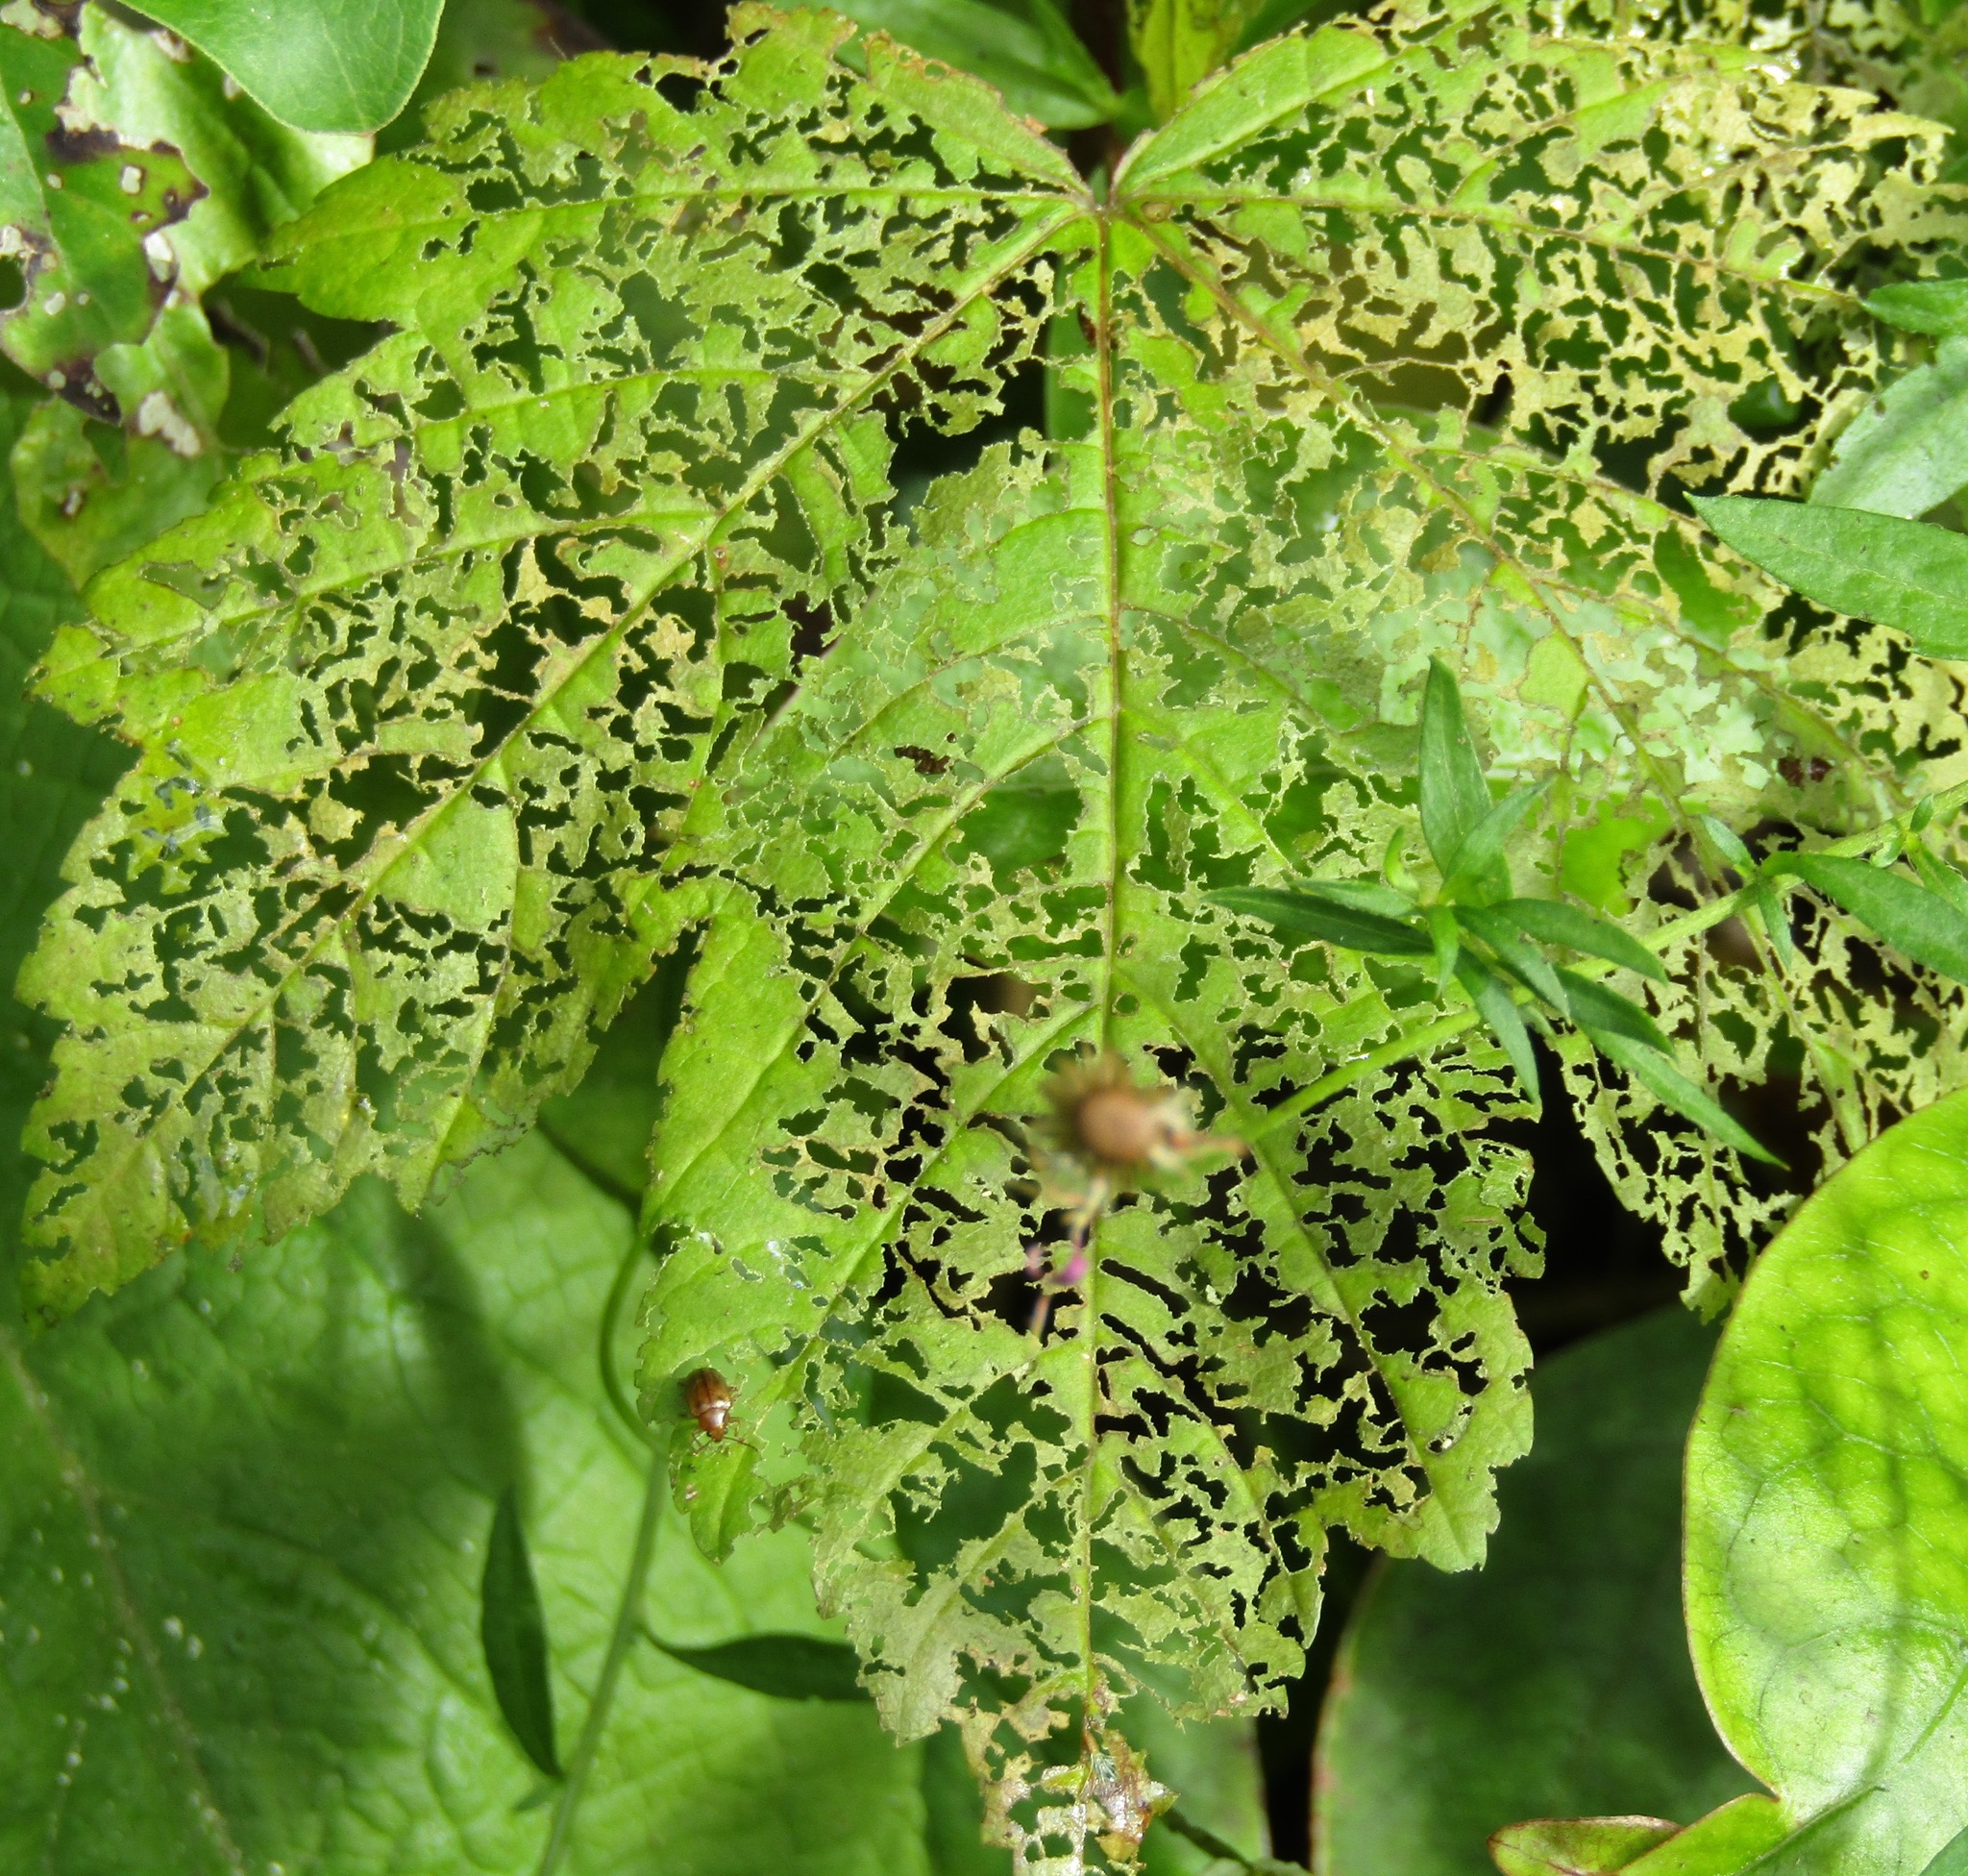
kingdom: Plantae
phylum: Tracheophyta
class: Magnoliopsida
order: Sapindales
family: Sapindaceae
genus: Acer
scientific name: Acer pseudoplatanus
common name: Sycamore
